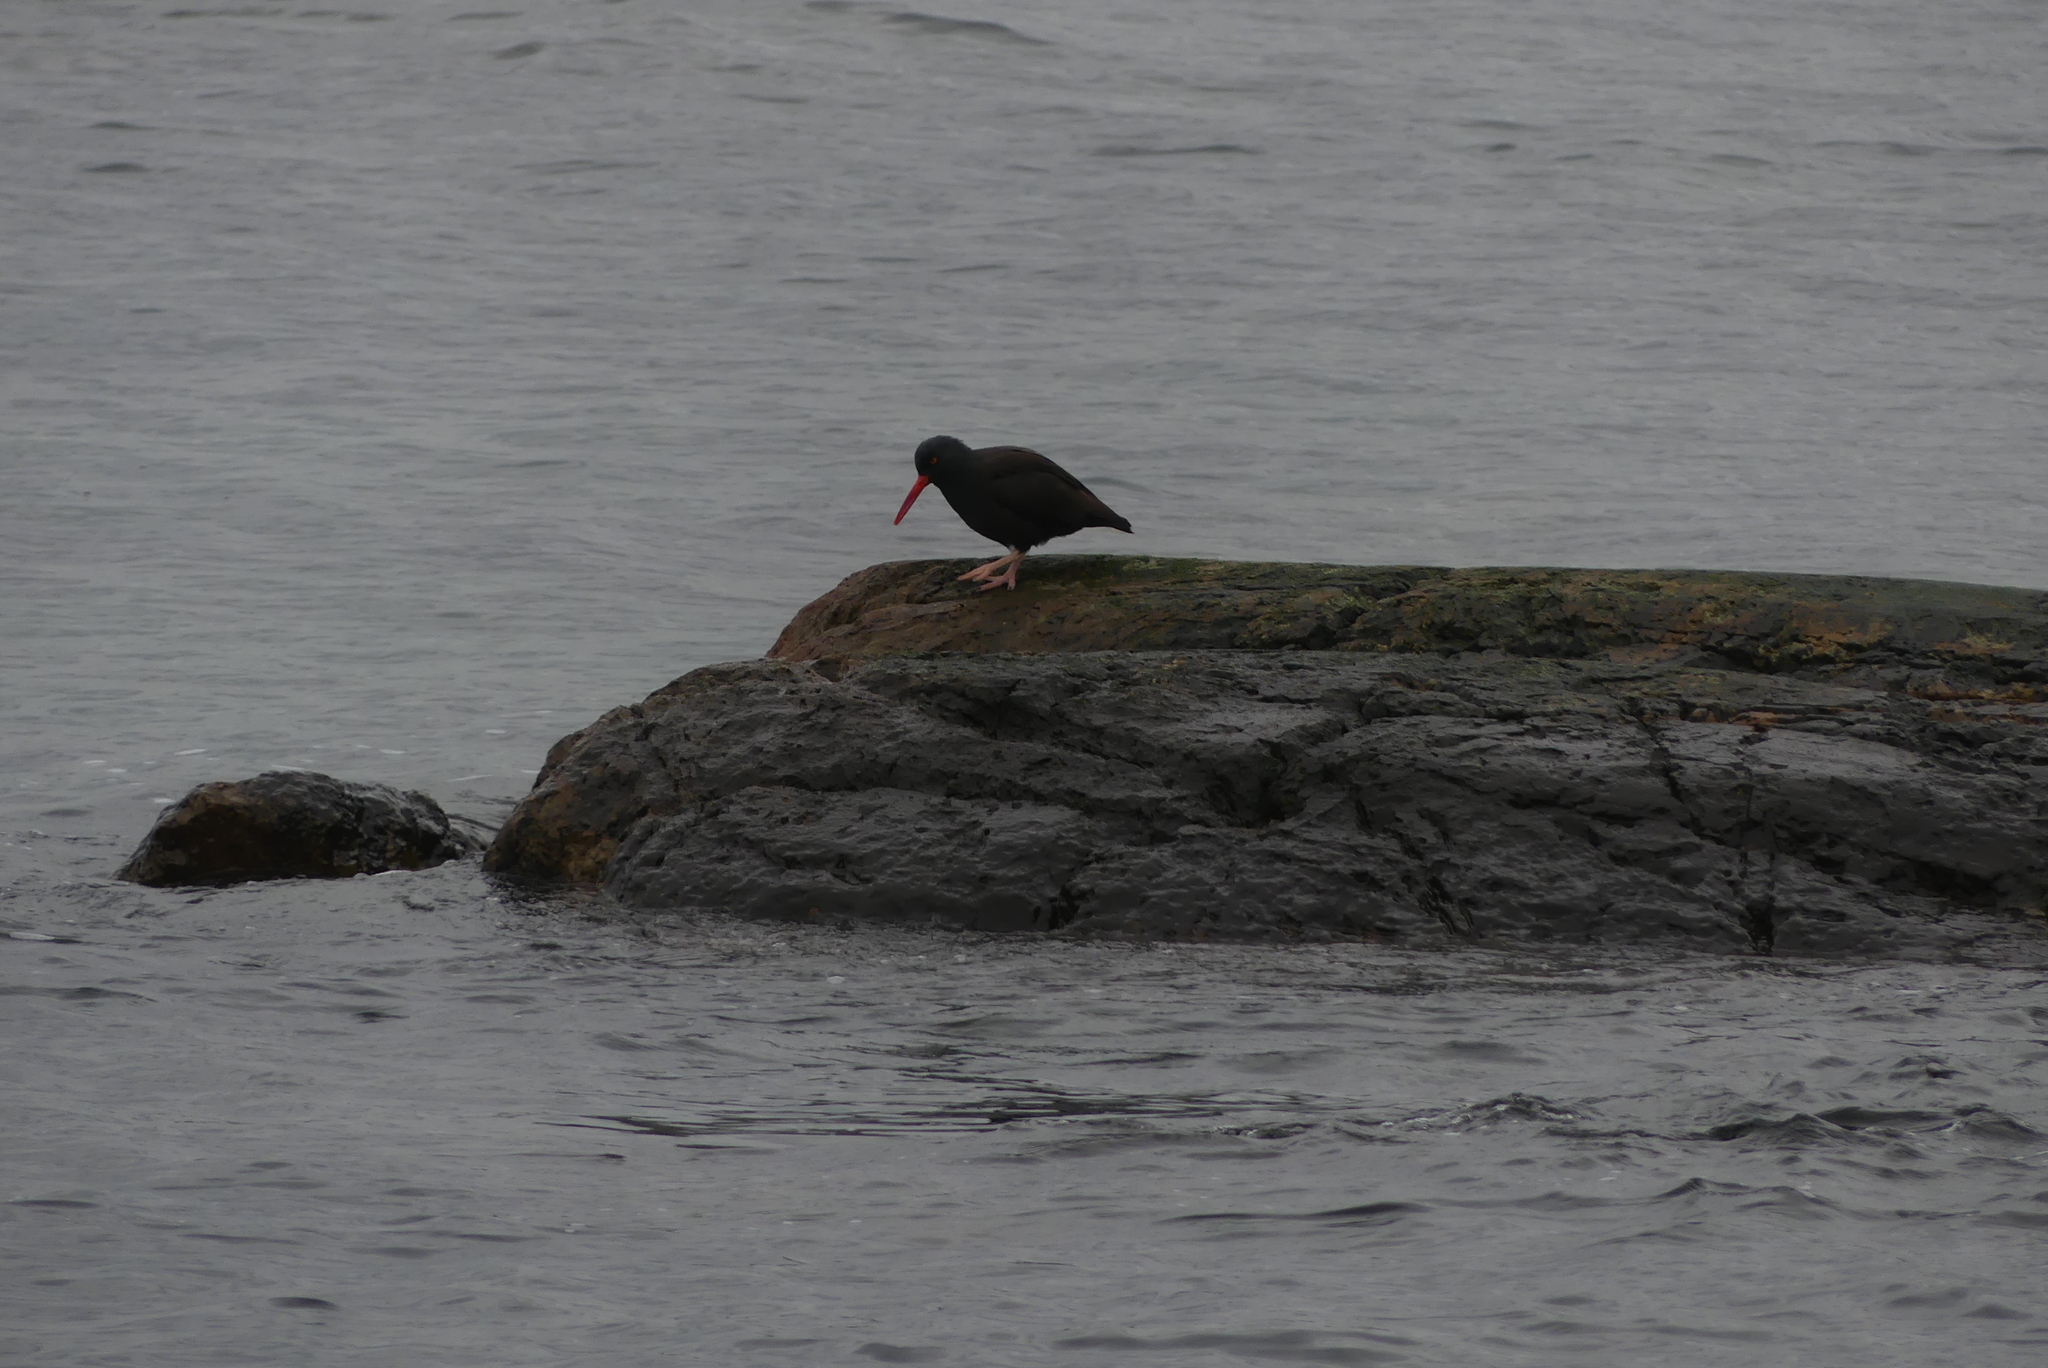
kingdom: Animalia
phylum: Chordata
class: Aves
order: Charadriiformes
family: Haematopodidae
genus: Haematopus
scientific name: Haematopus bachmani
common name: Black oystercatcher
